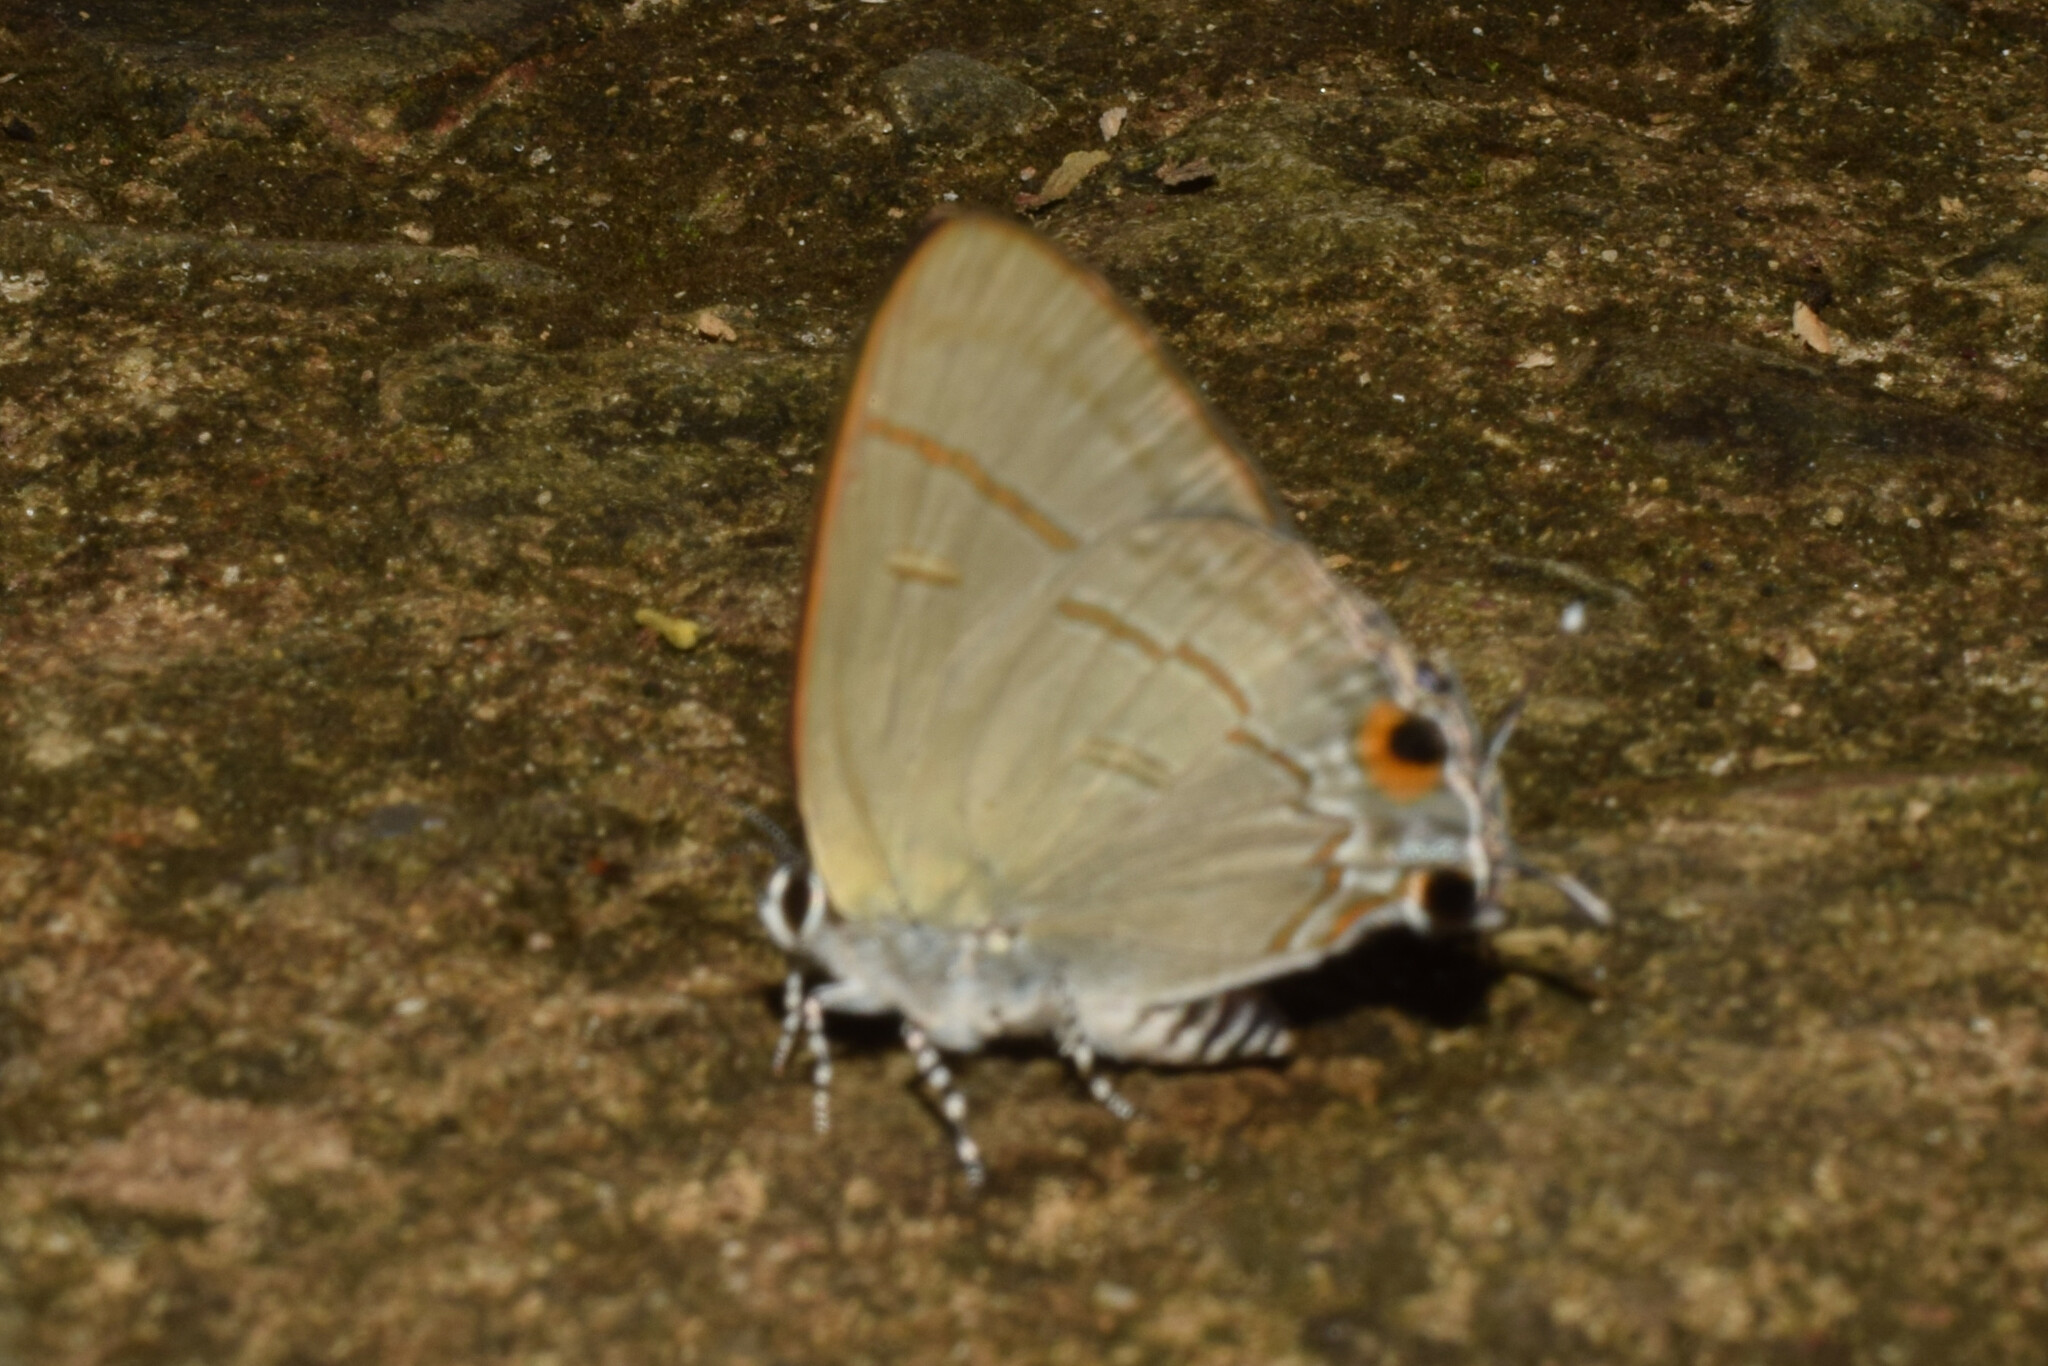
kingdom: Animalia
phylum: Arthropoda
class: Insecta
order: Lepidoptera
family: Lycaenidae
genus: Hypolycaena
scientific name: Hypolycaena erylus
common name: Common tit
